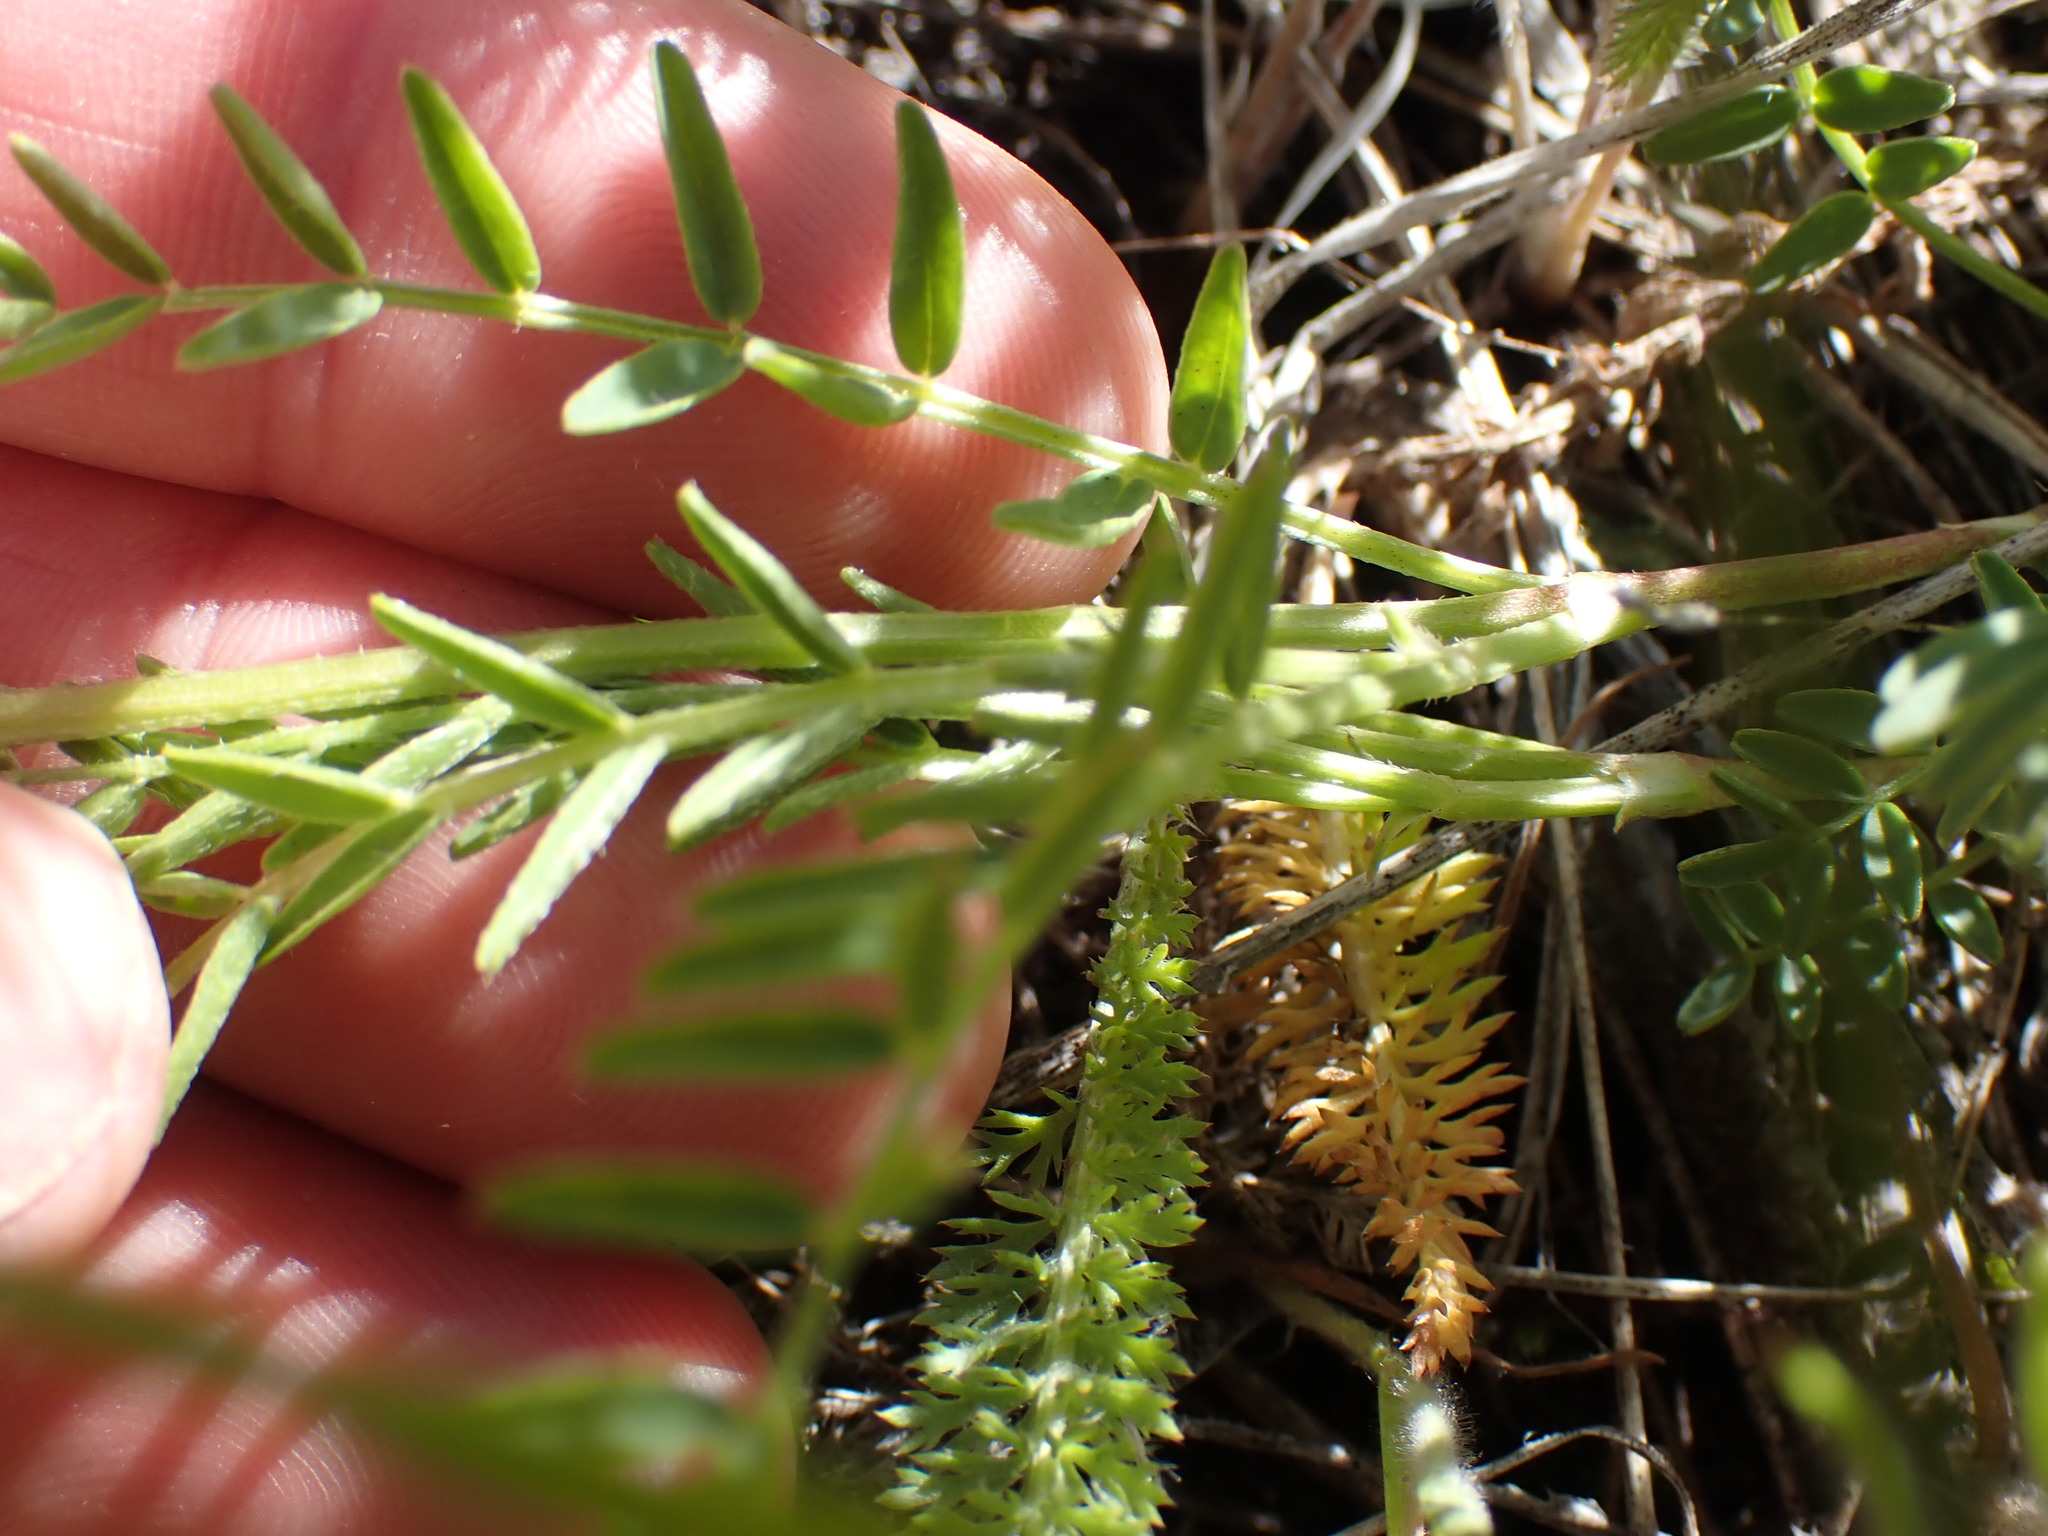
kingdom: Plantae
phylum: Tracheophyta
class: Magnoliopsida
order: Fabales
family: Fabaceae
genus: Astragalus
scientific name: Astragalus agrestis
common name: Field milk-vetch
